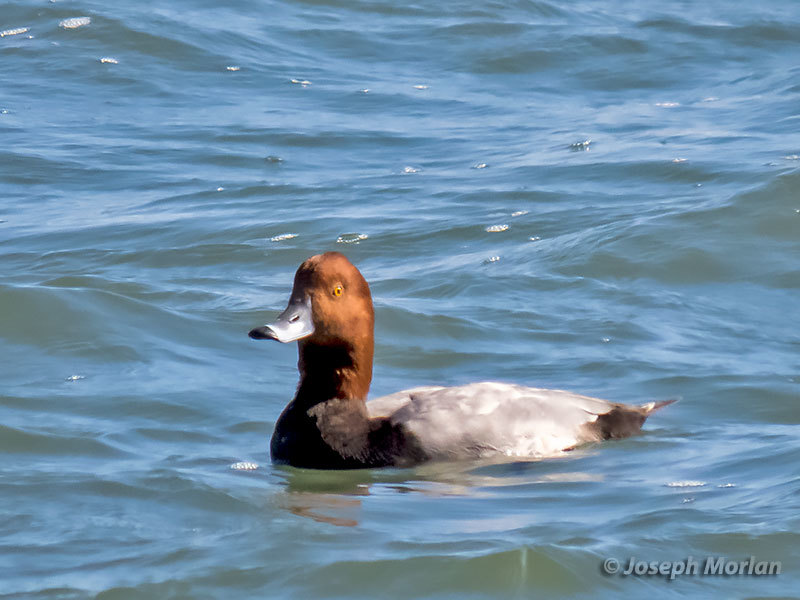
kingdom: Animalia
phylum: Chordata
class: Aves
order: Anseriformes
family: Anatidae
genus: Aythya
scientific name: Aythya americana
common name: Redhead
